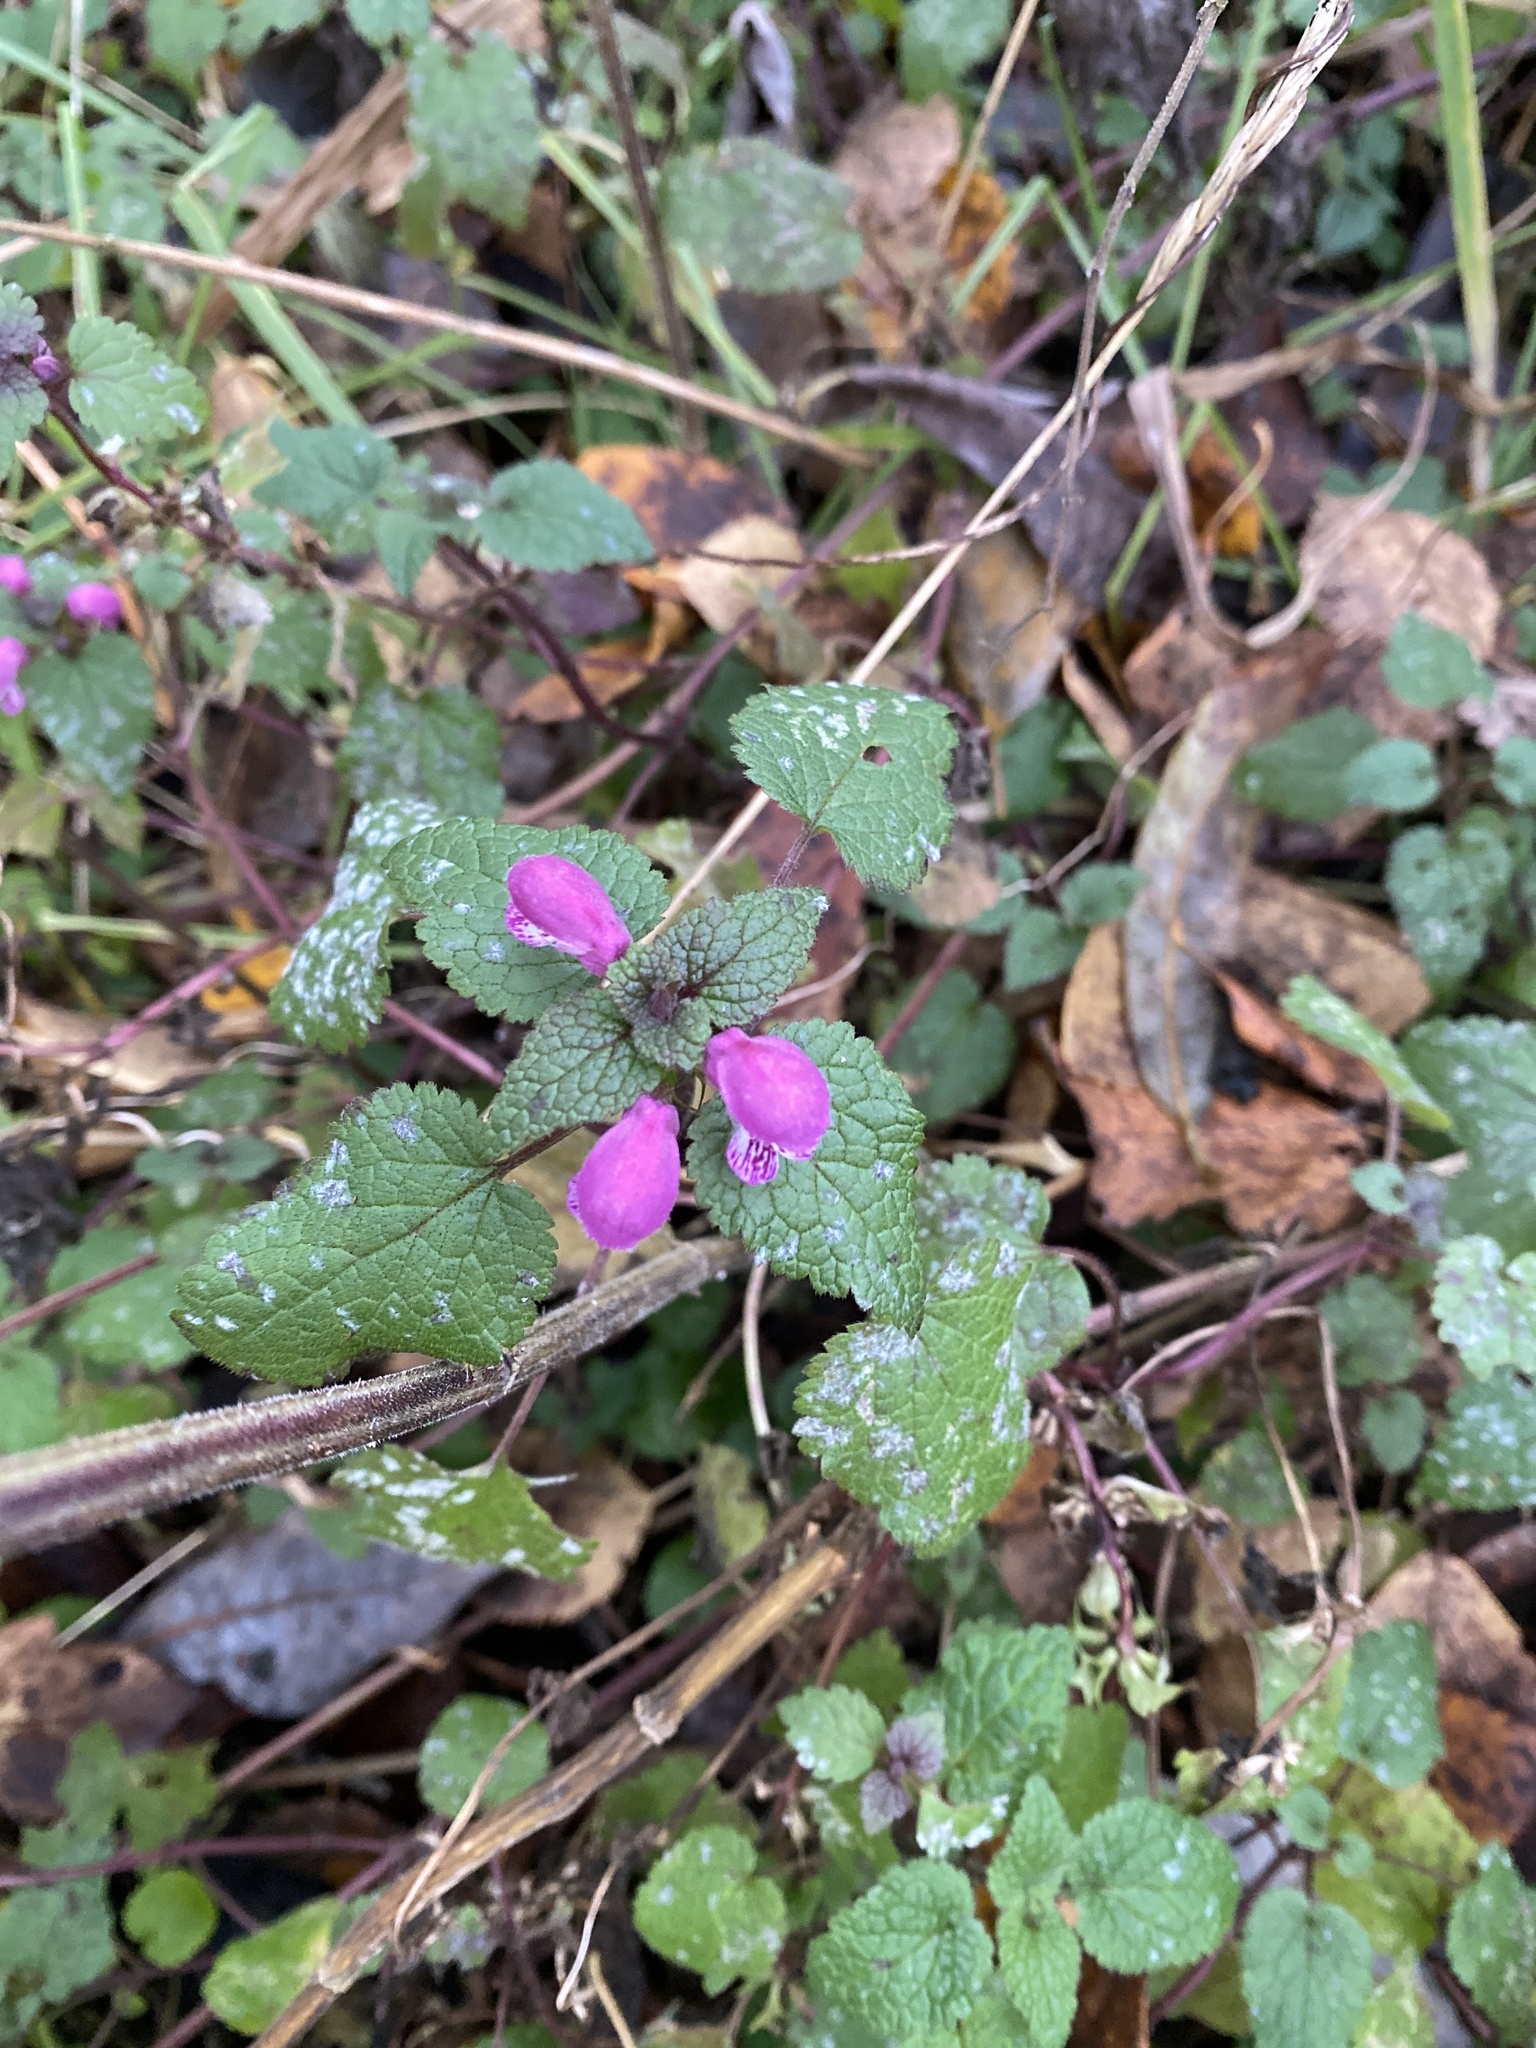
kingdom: Plantae
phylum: Tracheophyta
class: Magnoliopsida
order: Lamiales
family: Lamiaceae
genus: Lamium
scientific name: Lamium maculatum
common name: Spotted dead-nettle
